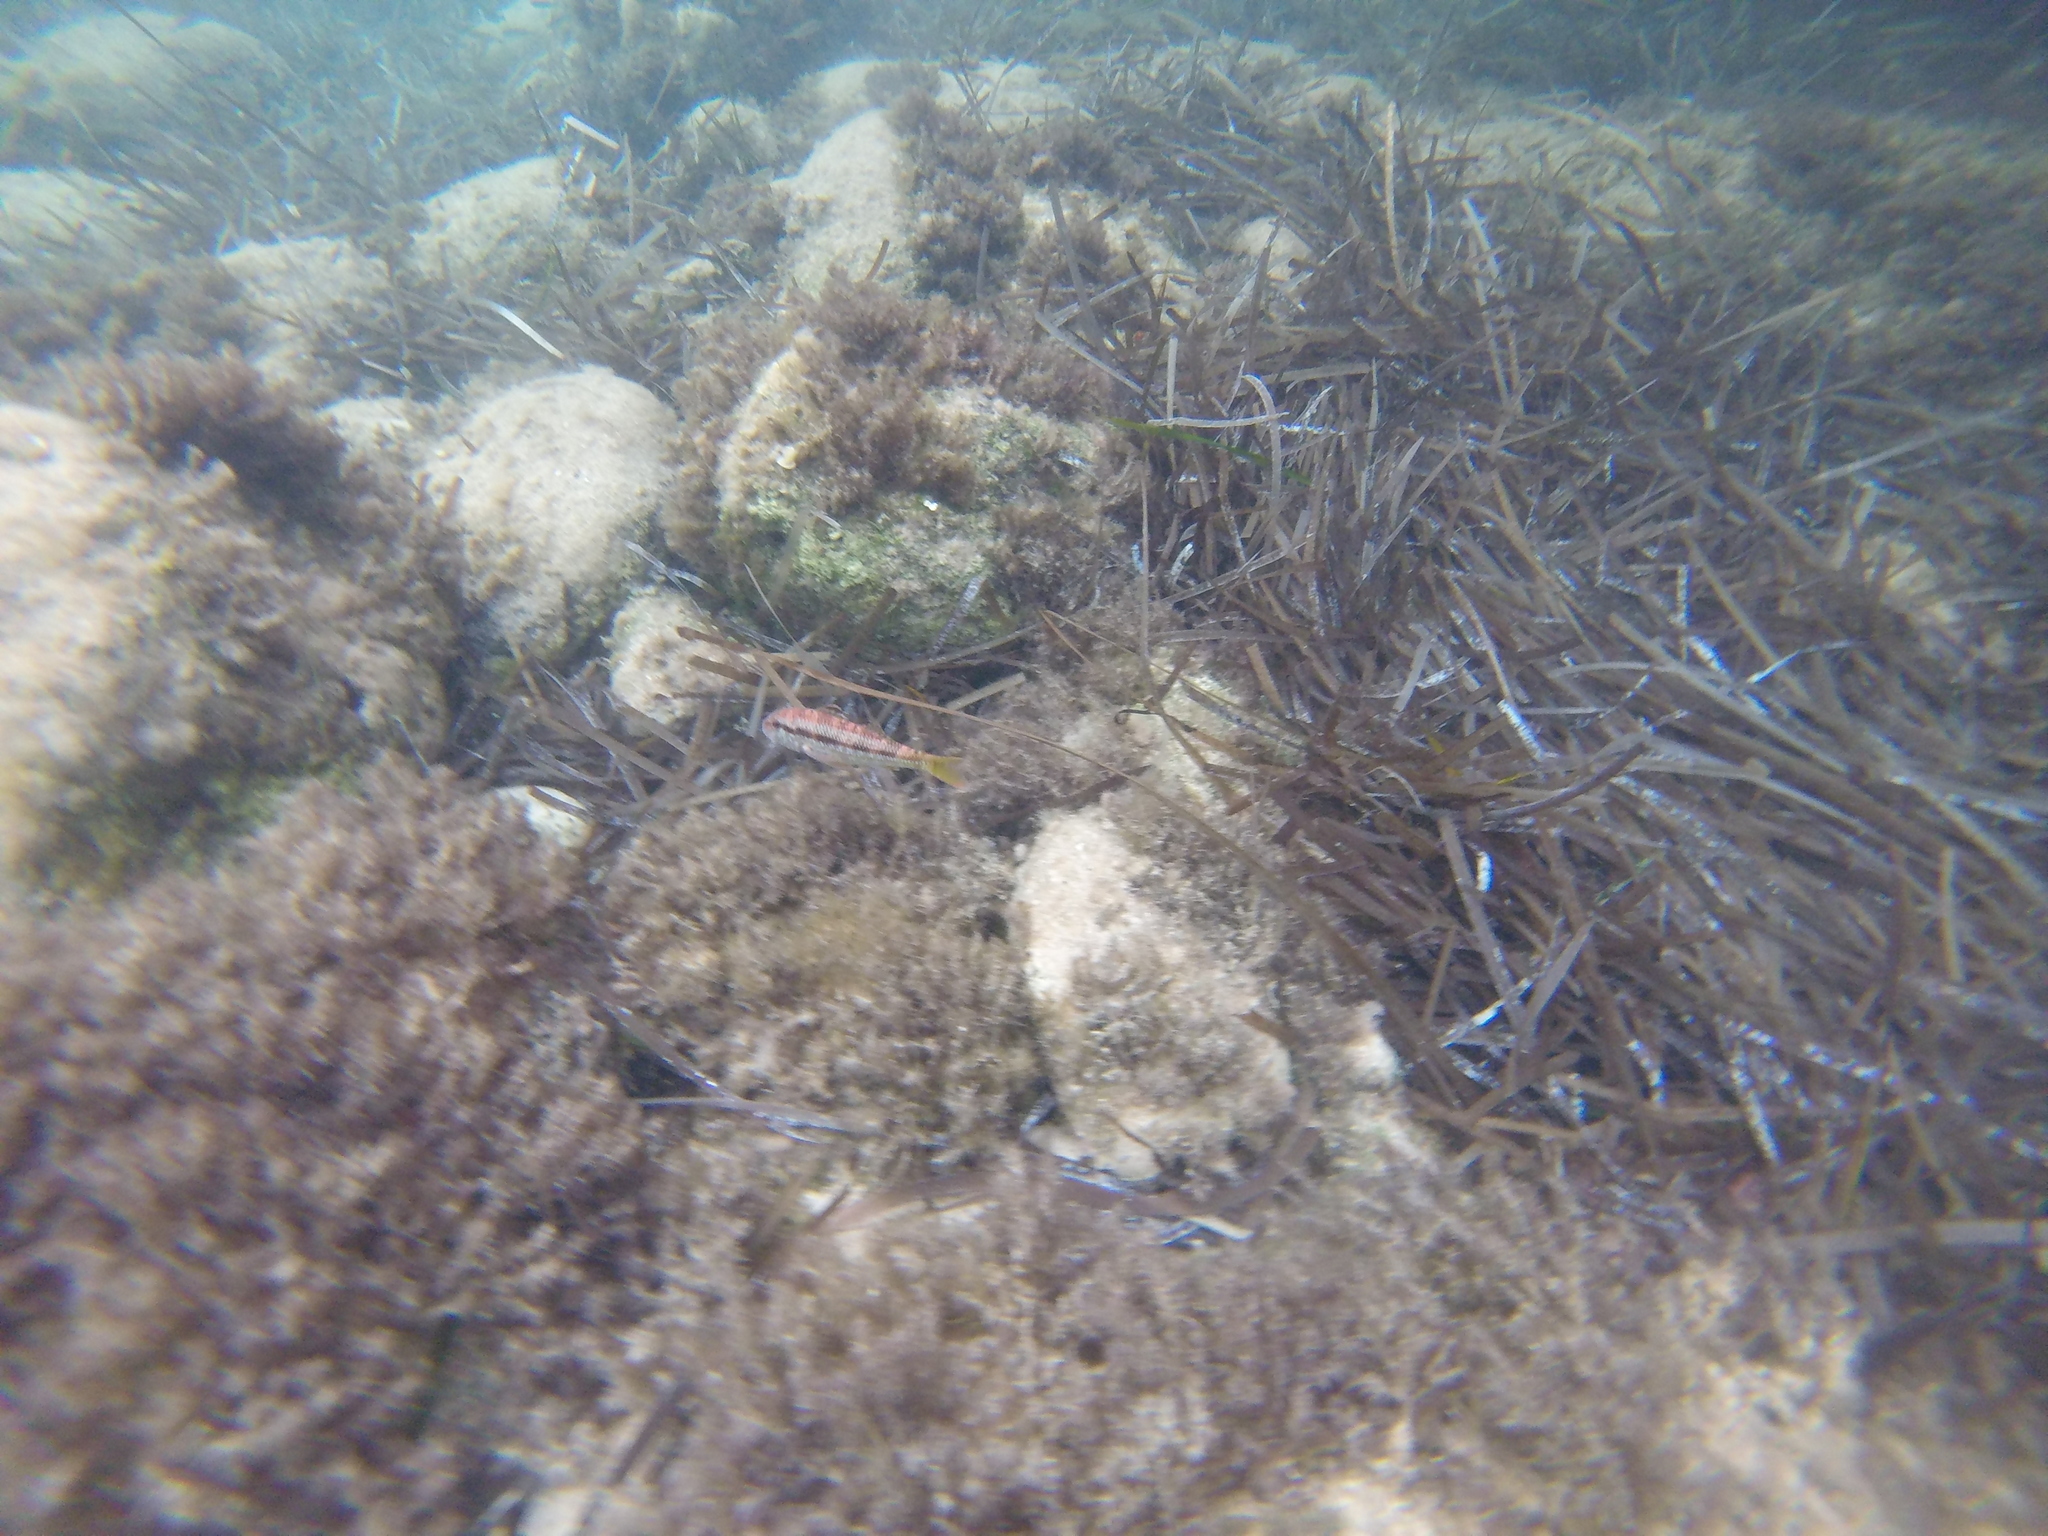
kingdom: Animalia
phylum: Chordata
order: Perciformes
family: Mullidae
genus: Mullus
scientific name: Mullus surmuletus
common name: Red mullet
